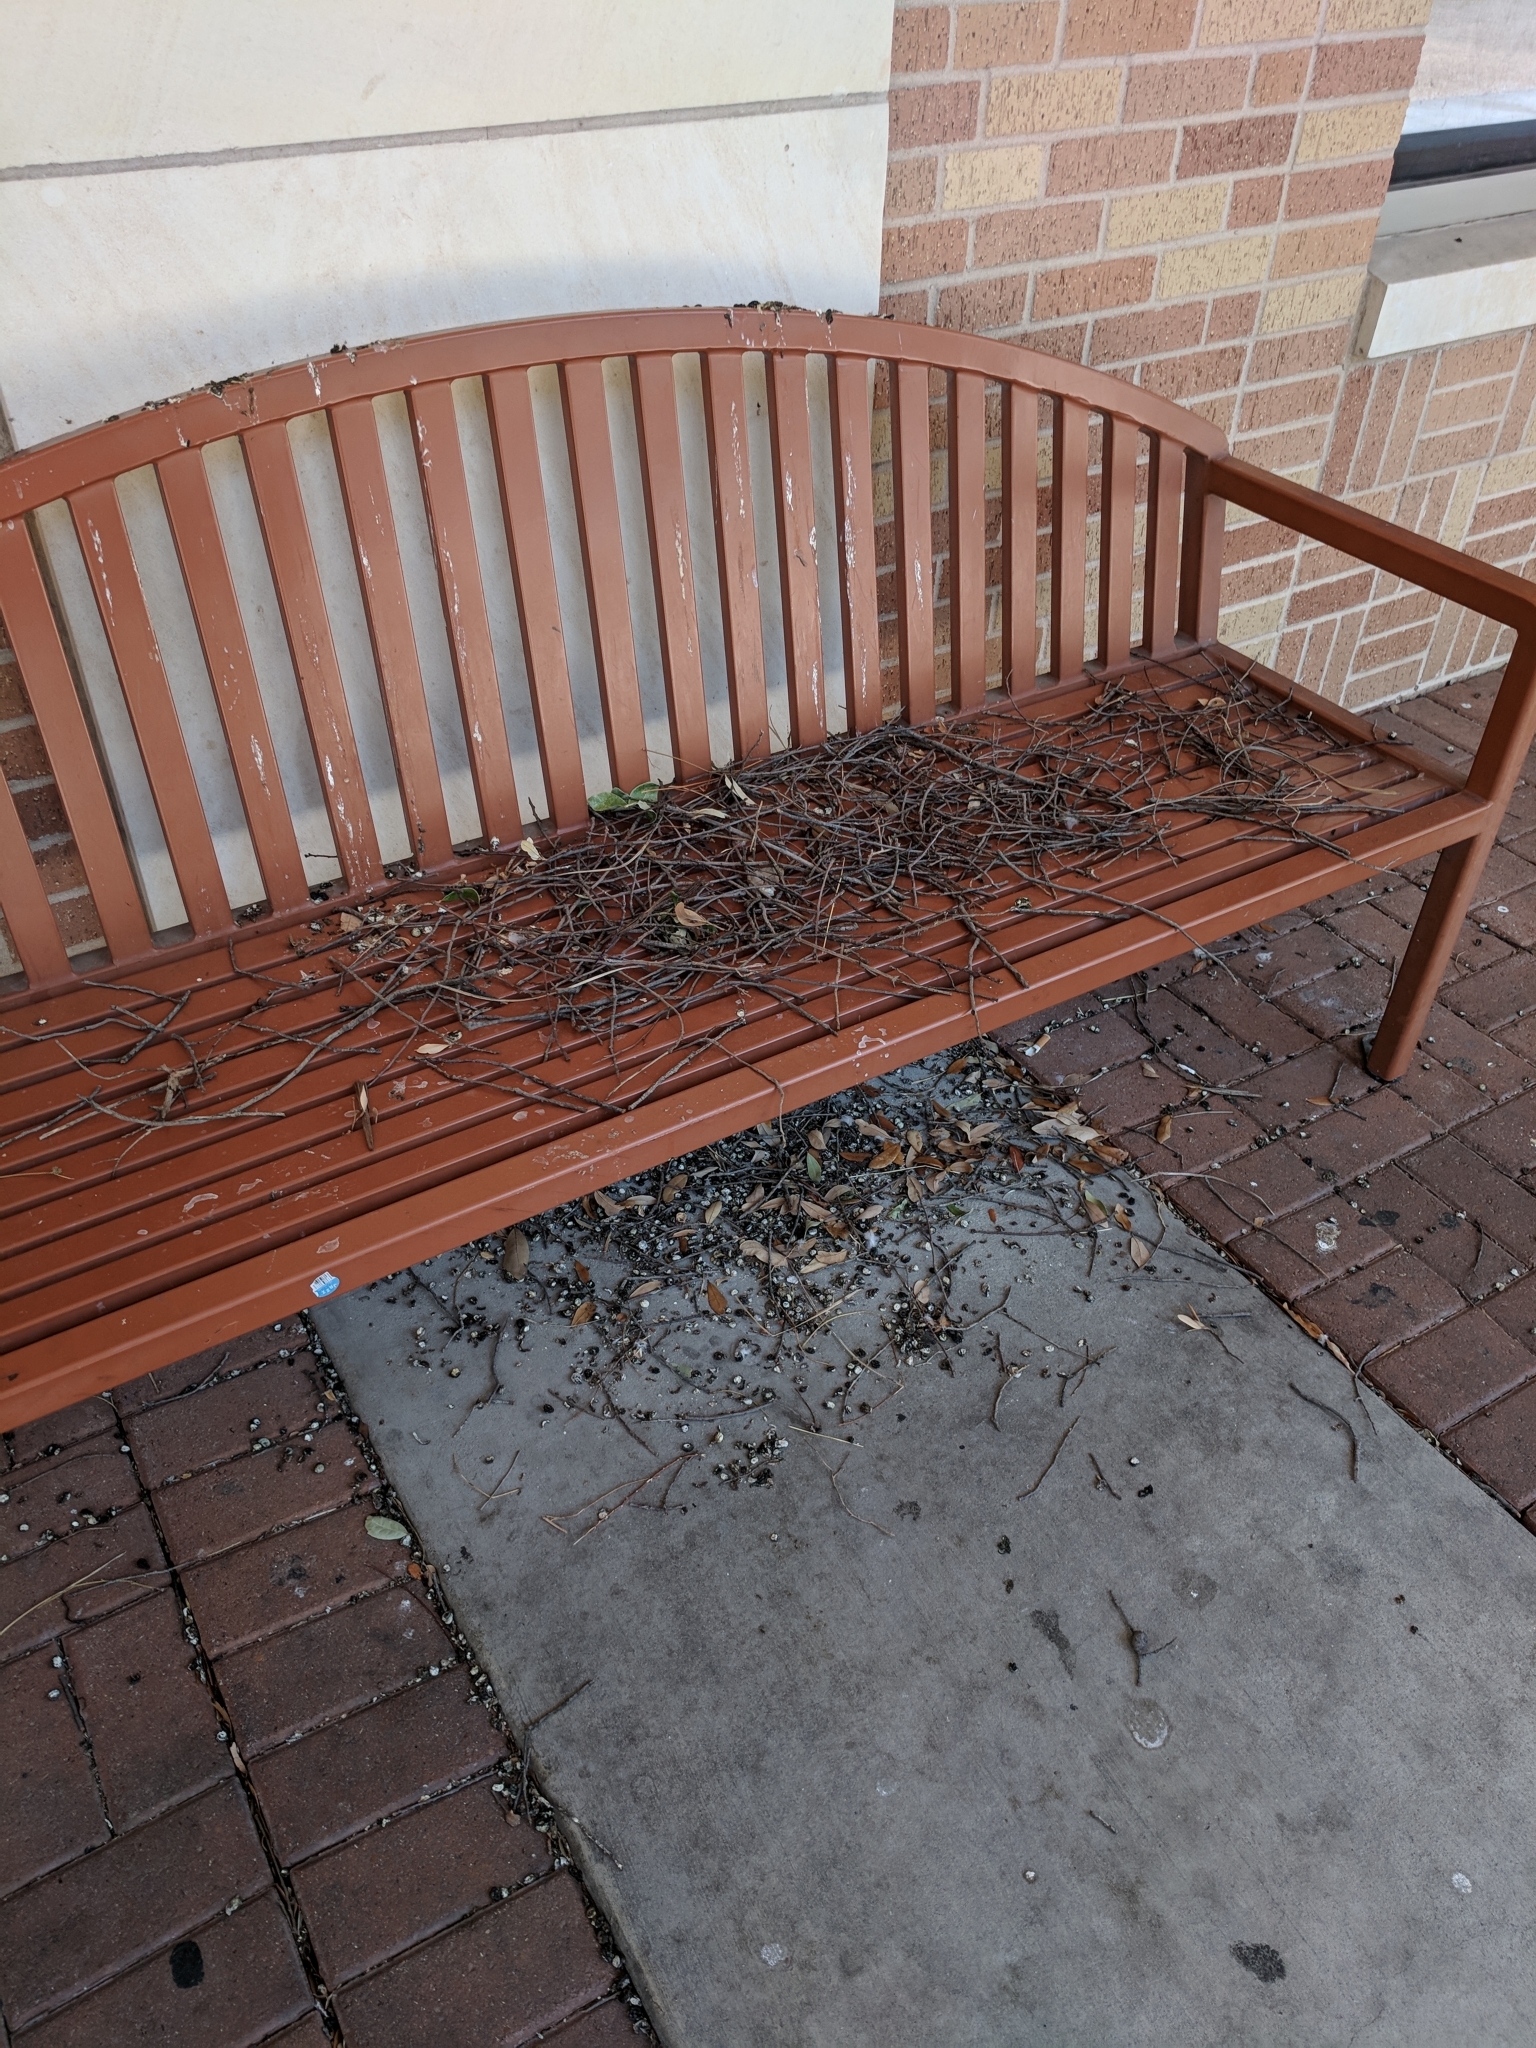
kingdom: Animalia
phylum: Chordata
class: Aves
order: Columbiformes
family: Columbidae
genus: Columba
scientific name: Columba livia
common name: Rock pigeon
